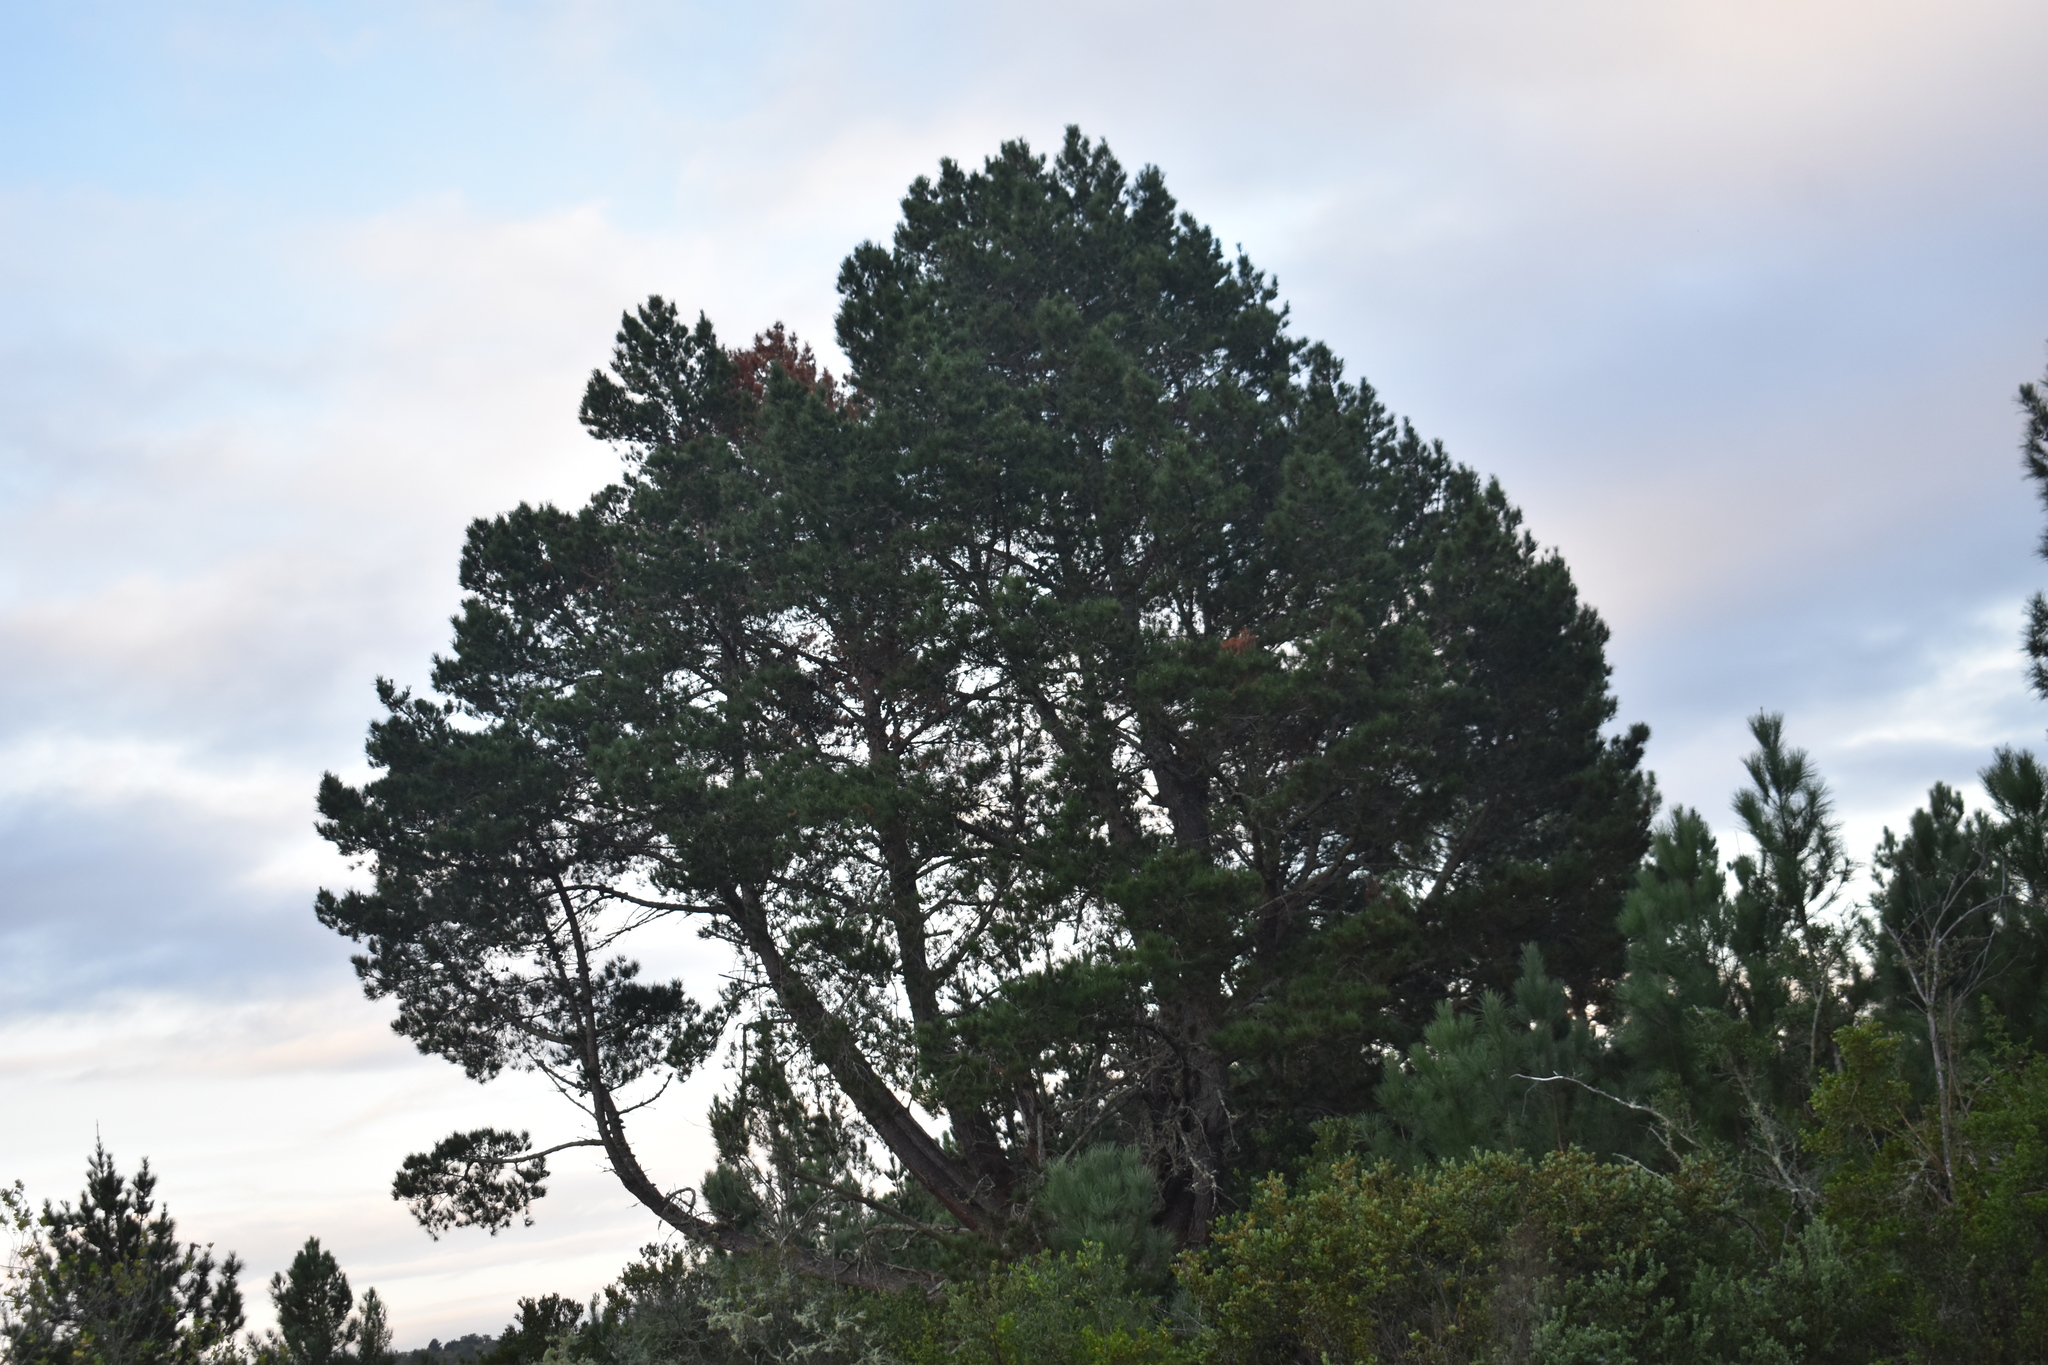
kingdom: Plantae
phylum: Tracheophyta
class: Pinopsida
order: Pinales
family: Pinaceae
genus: Pinus
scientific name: Pinus radiata
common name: Monterey pine
